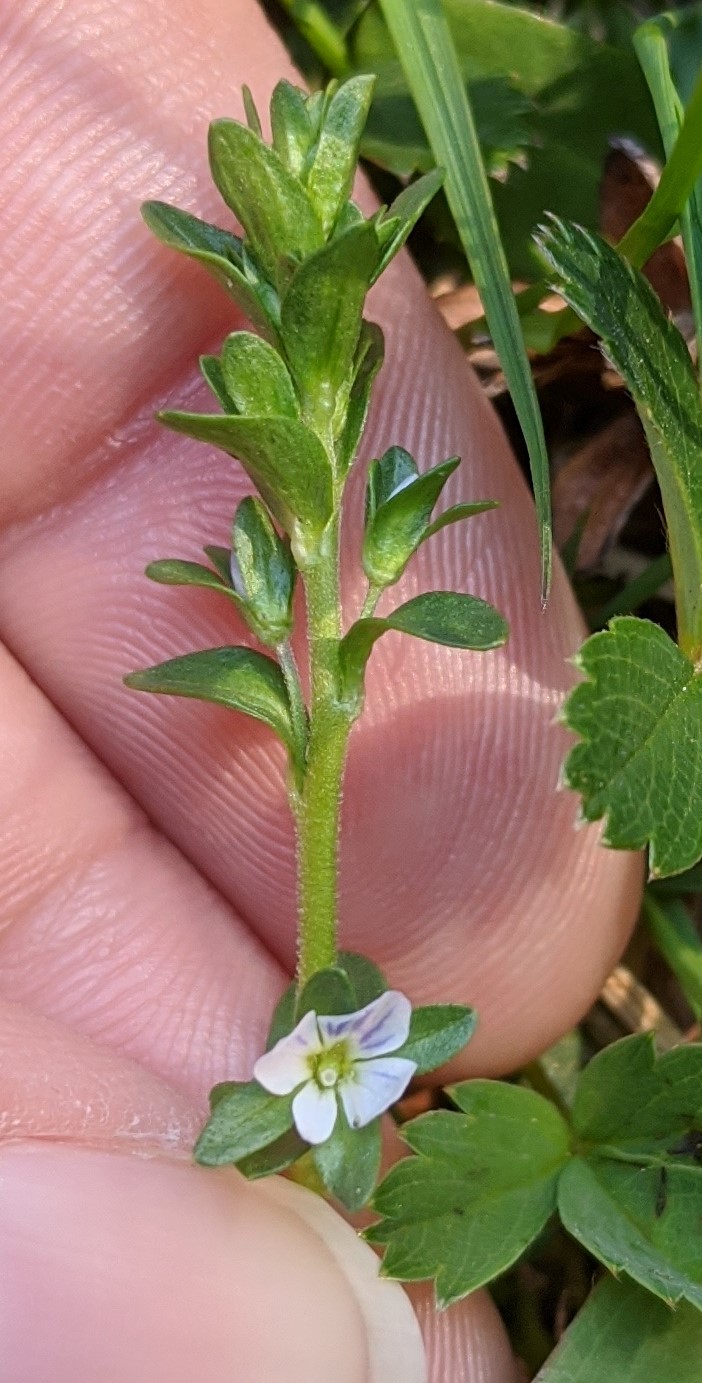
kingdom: Plantae
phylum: Tracheophyta
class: Magnoliopsida
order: Lamiales
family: Plantaginaceae
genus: Veronica
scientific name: Veronica serpyllifolia
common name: Thyme-leaved speedwell
